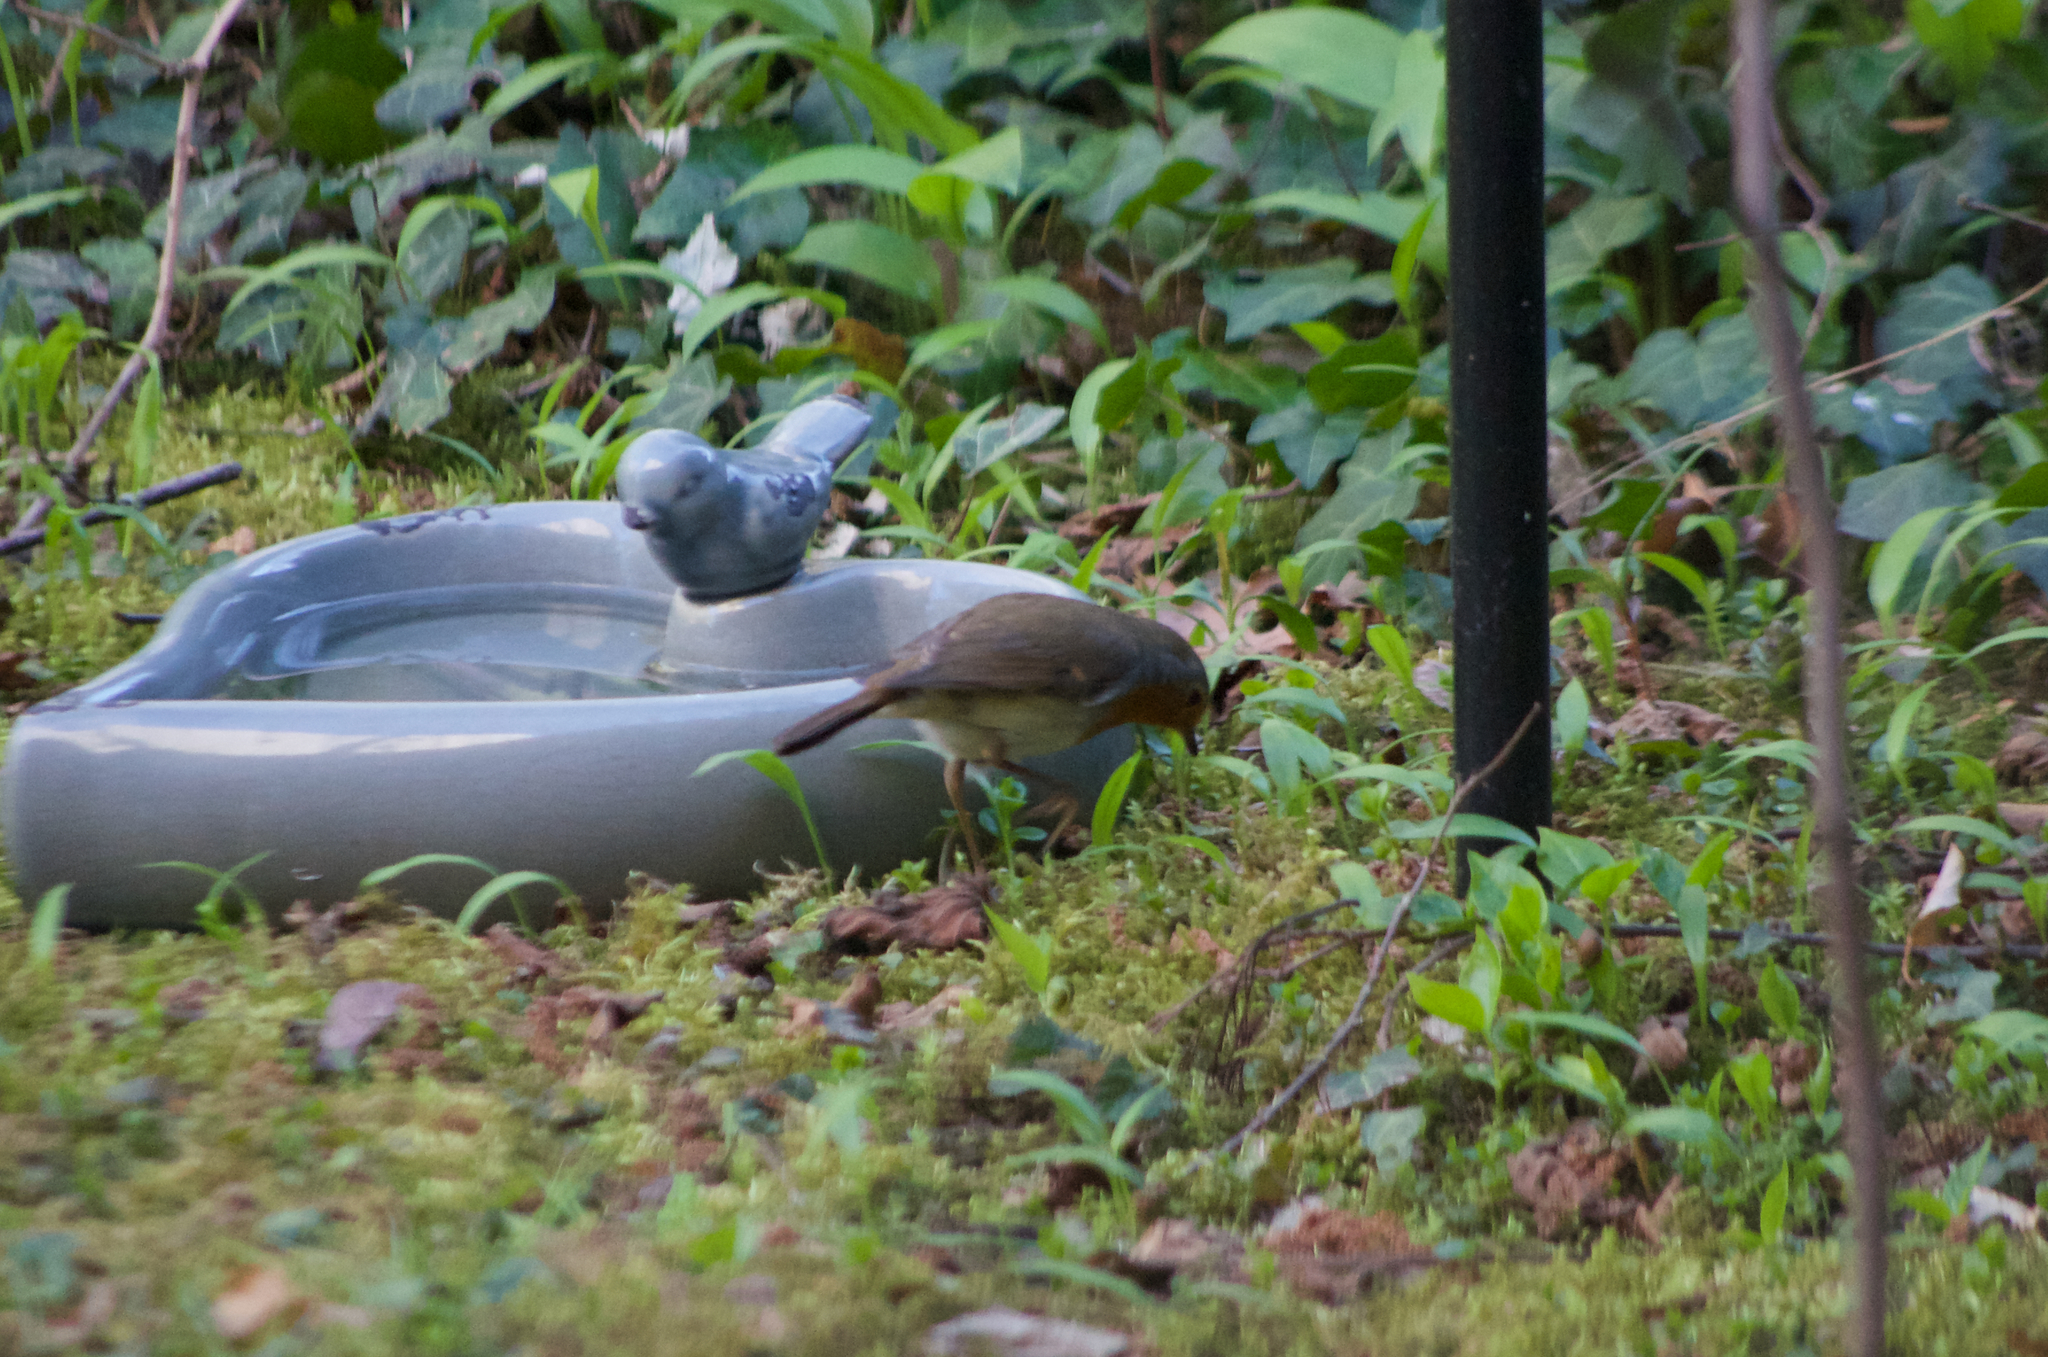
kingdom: Animalia
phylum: Chordata
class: Aves
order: Passeriformes
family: Muscicapidae
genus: Erithacus
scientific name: Erithacus rubecula
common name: European robin
